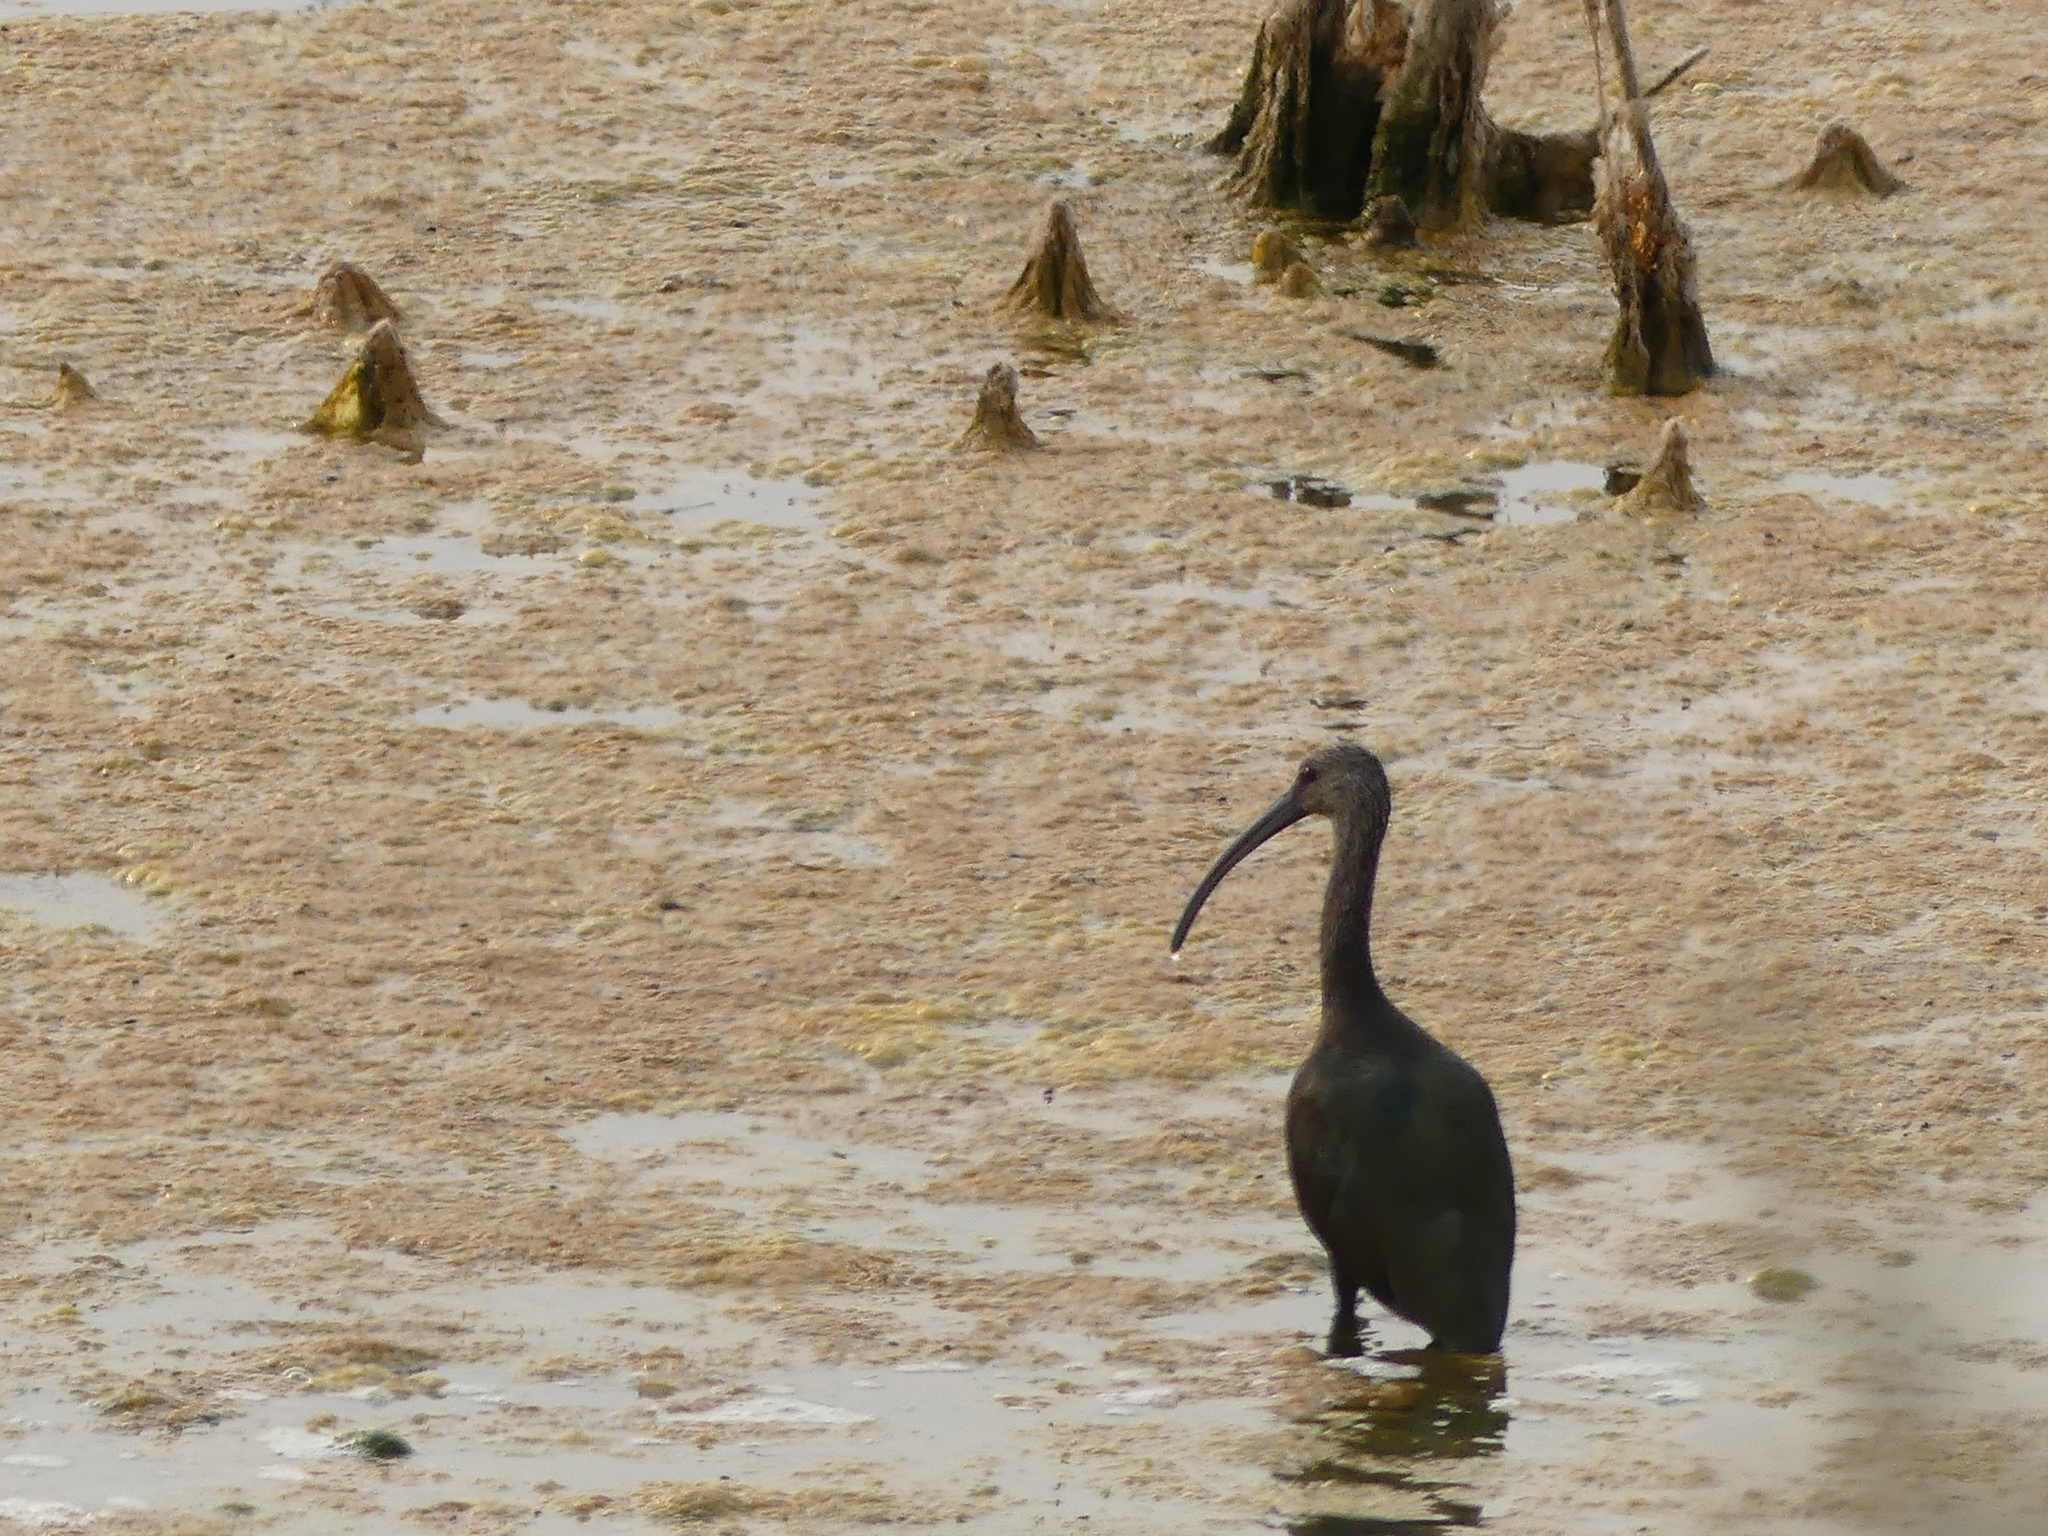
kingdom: Animalia
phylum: Chordata
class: Aves
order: Pelecaniformes
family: Threskiornithidae
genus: Plegadis
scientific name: Plegadis chihi
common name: White-faced ibis
